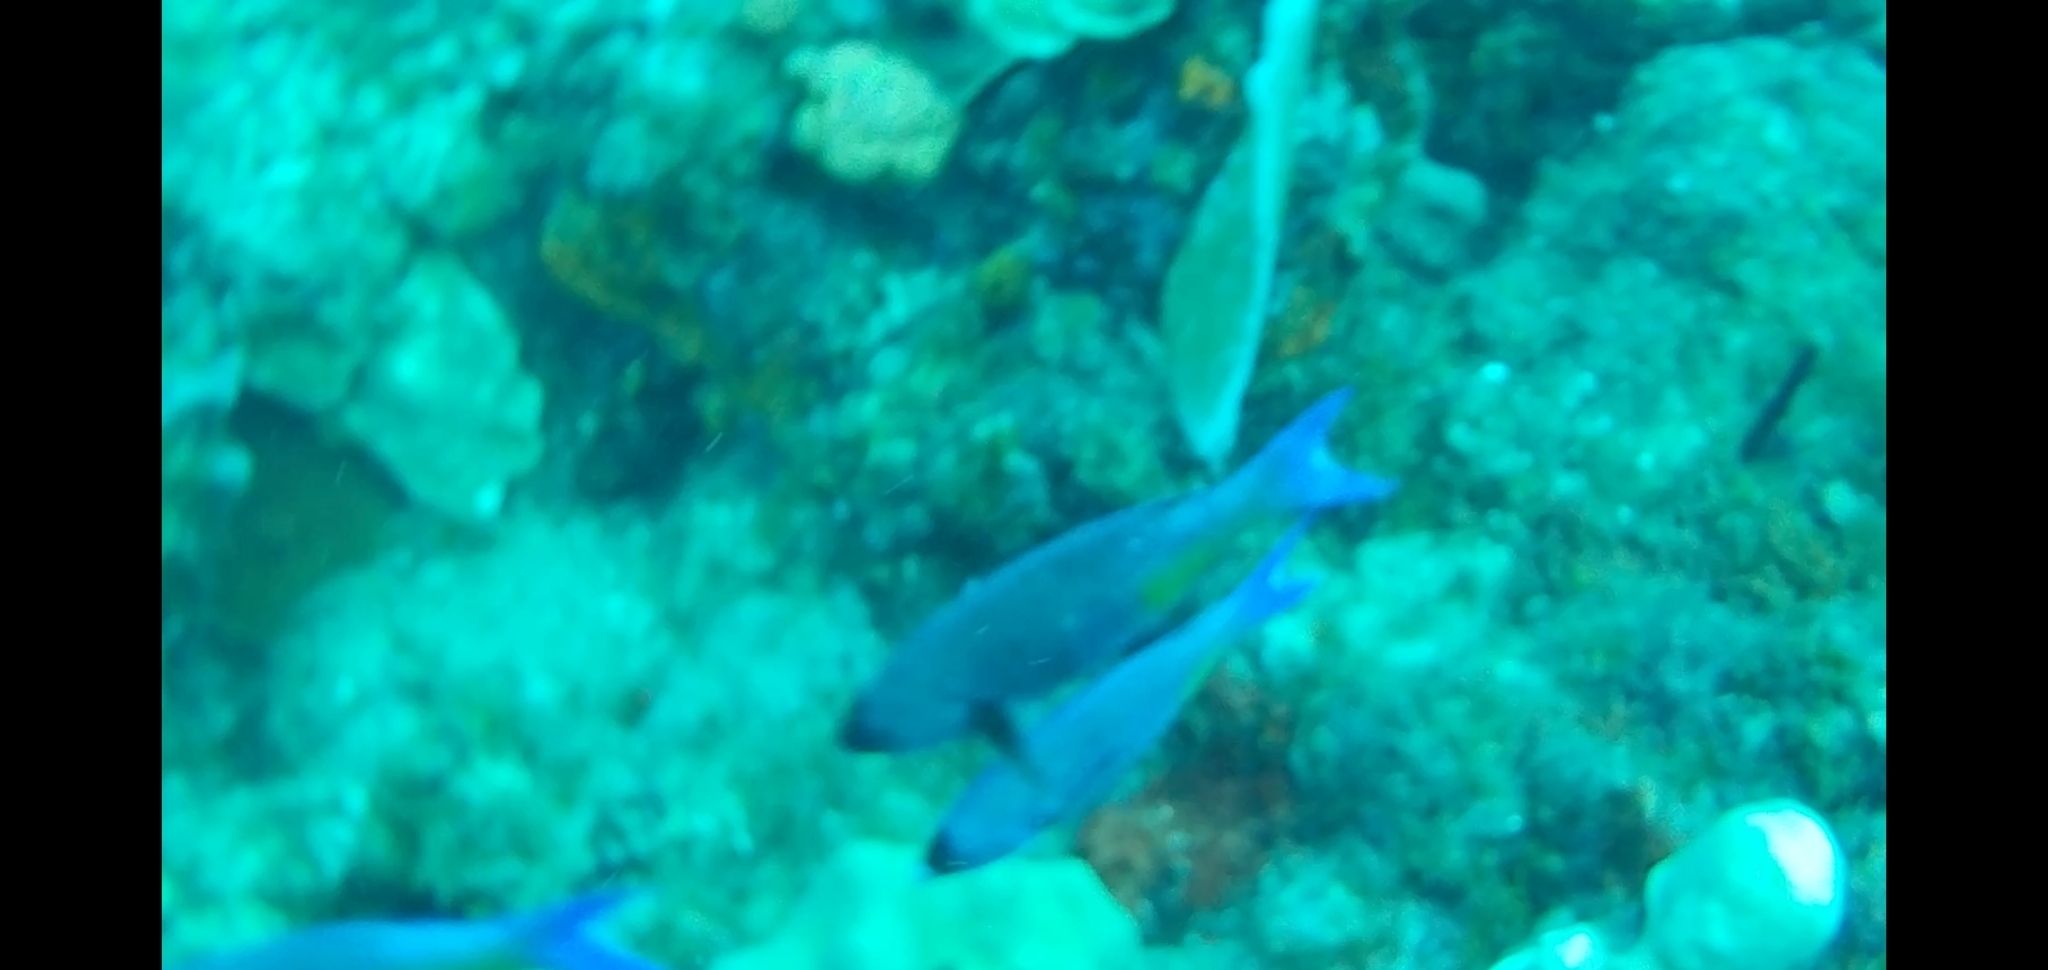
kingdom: Animalia
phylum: Chordata
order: Perciformes
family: Labridae
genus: Bodianus
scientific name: Bodianus
